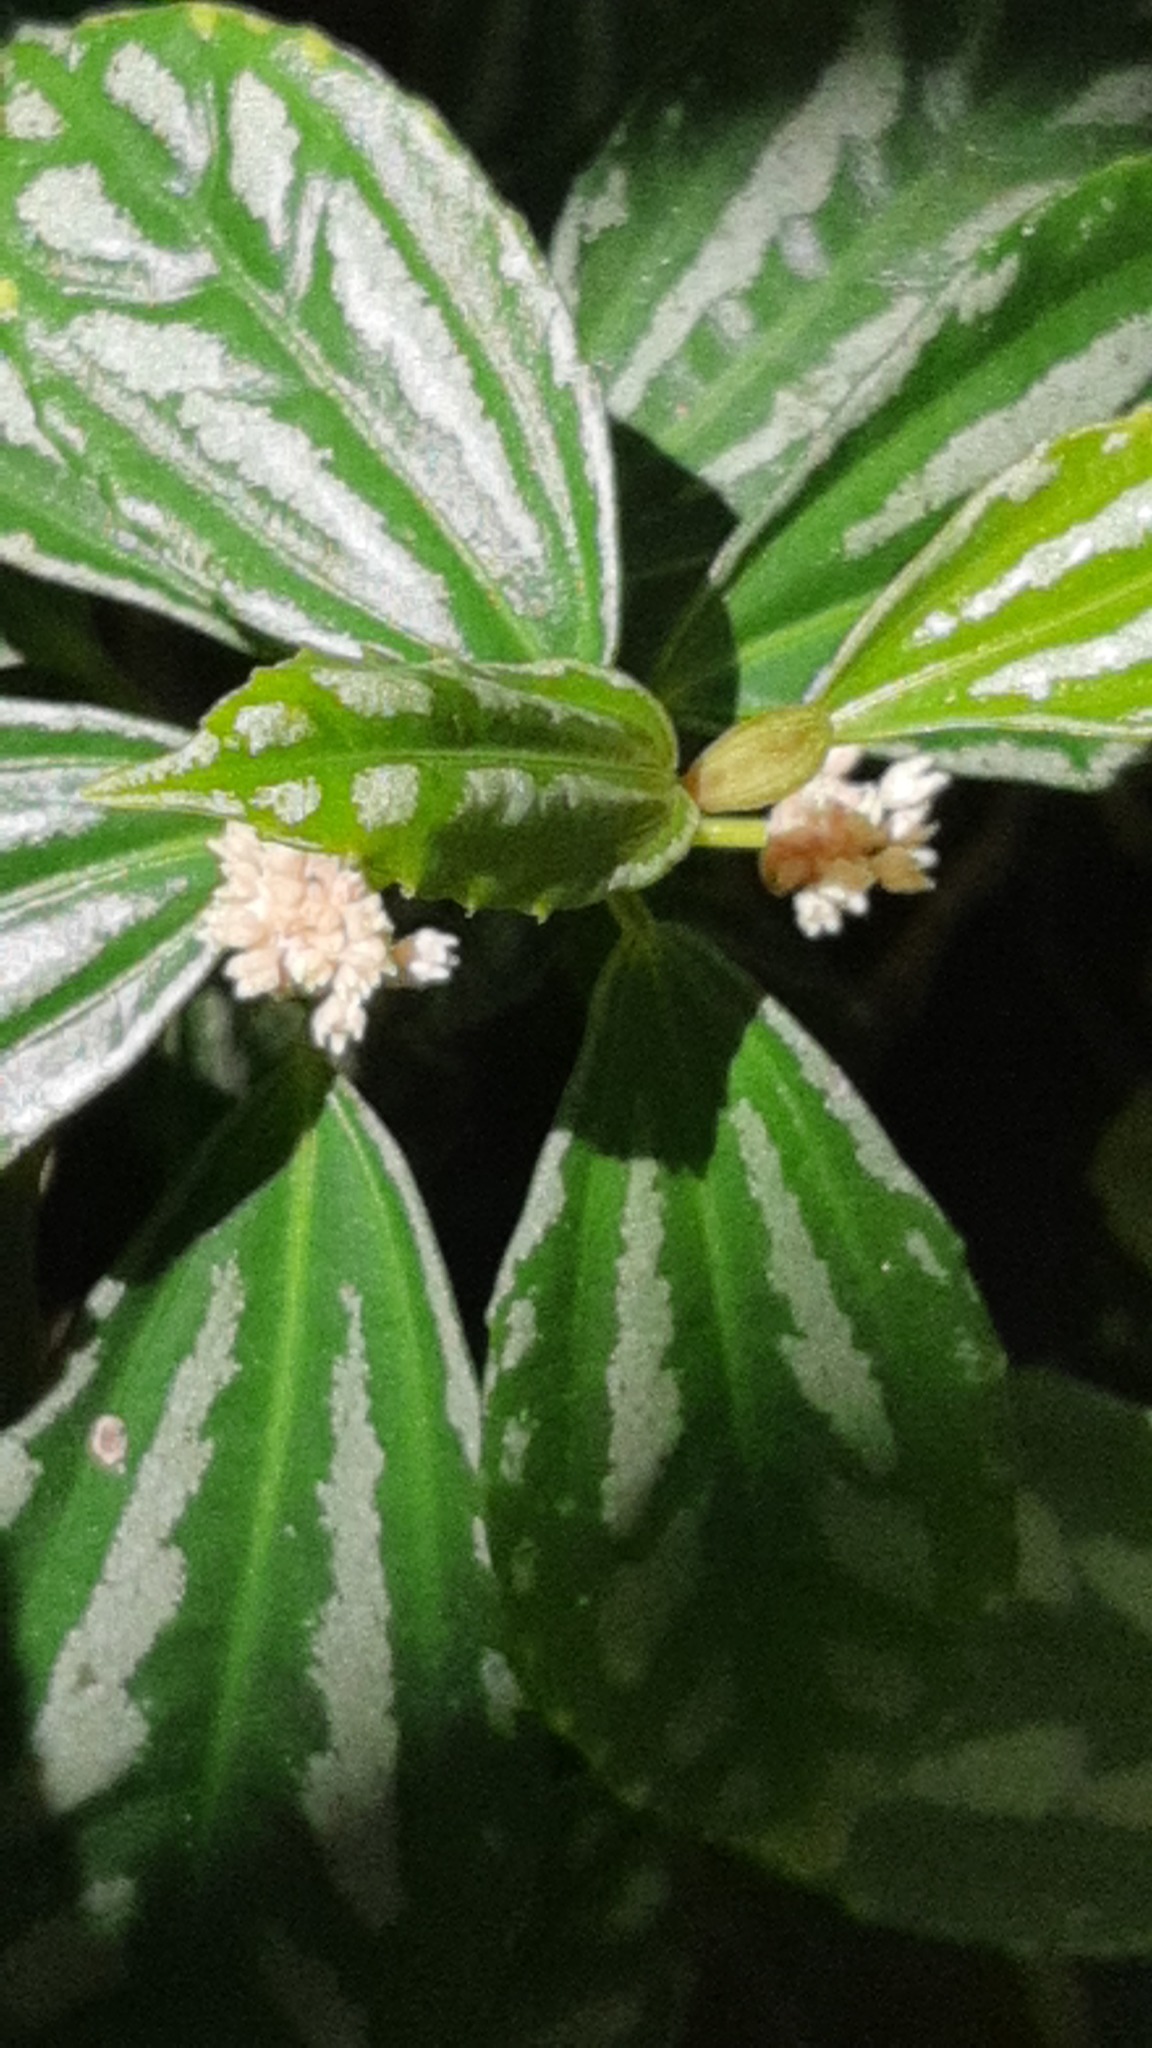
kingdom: Plantae
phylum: Tracheophyta
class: Magnoliopsida
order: Rosales
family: Urticaceae
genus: Pilea
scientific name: Pilea cadierei
